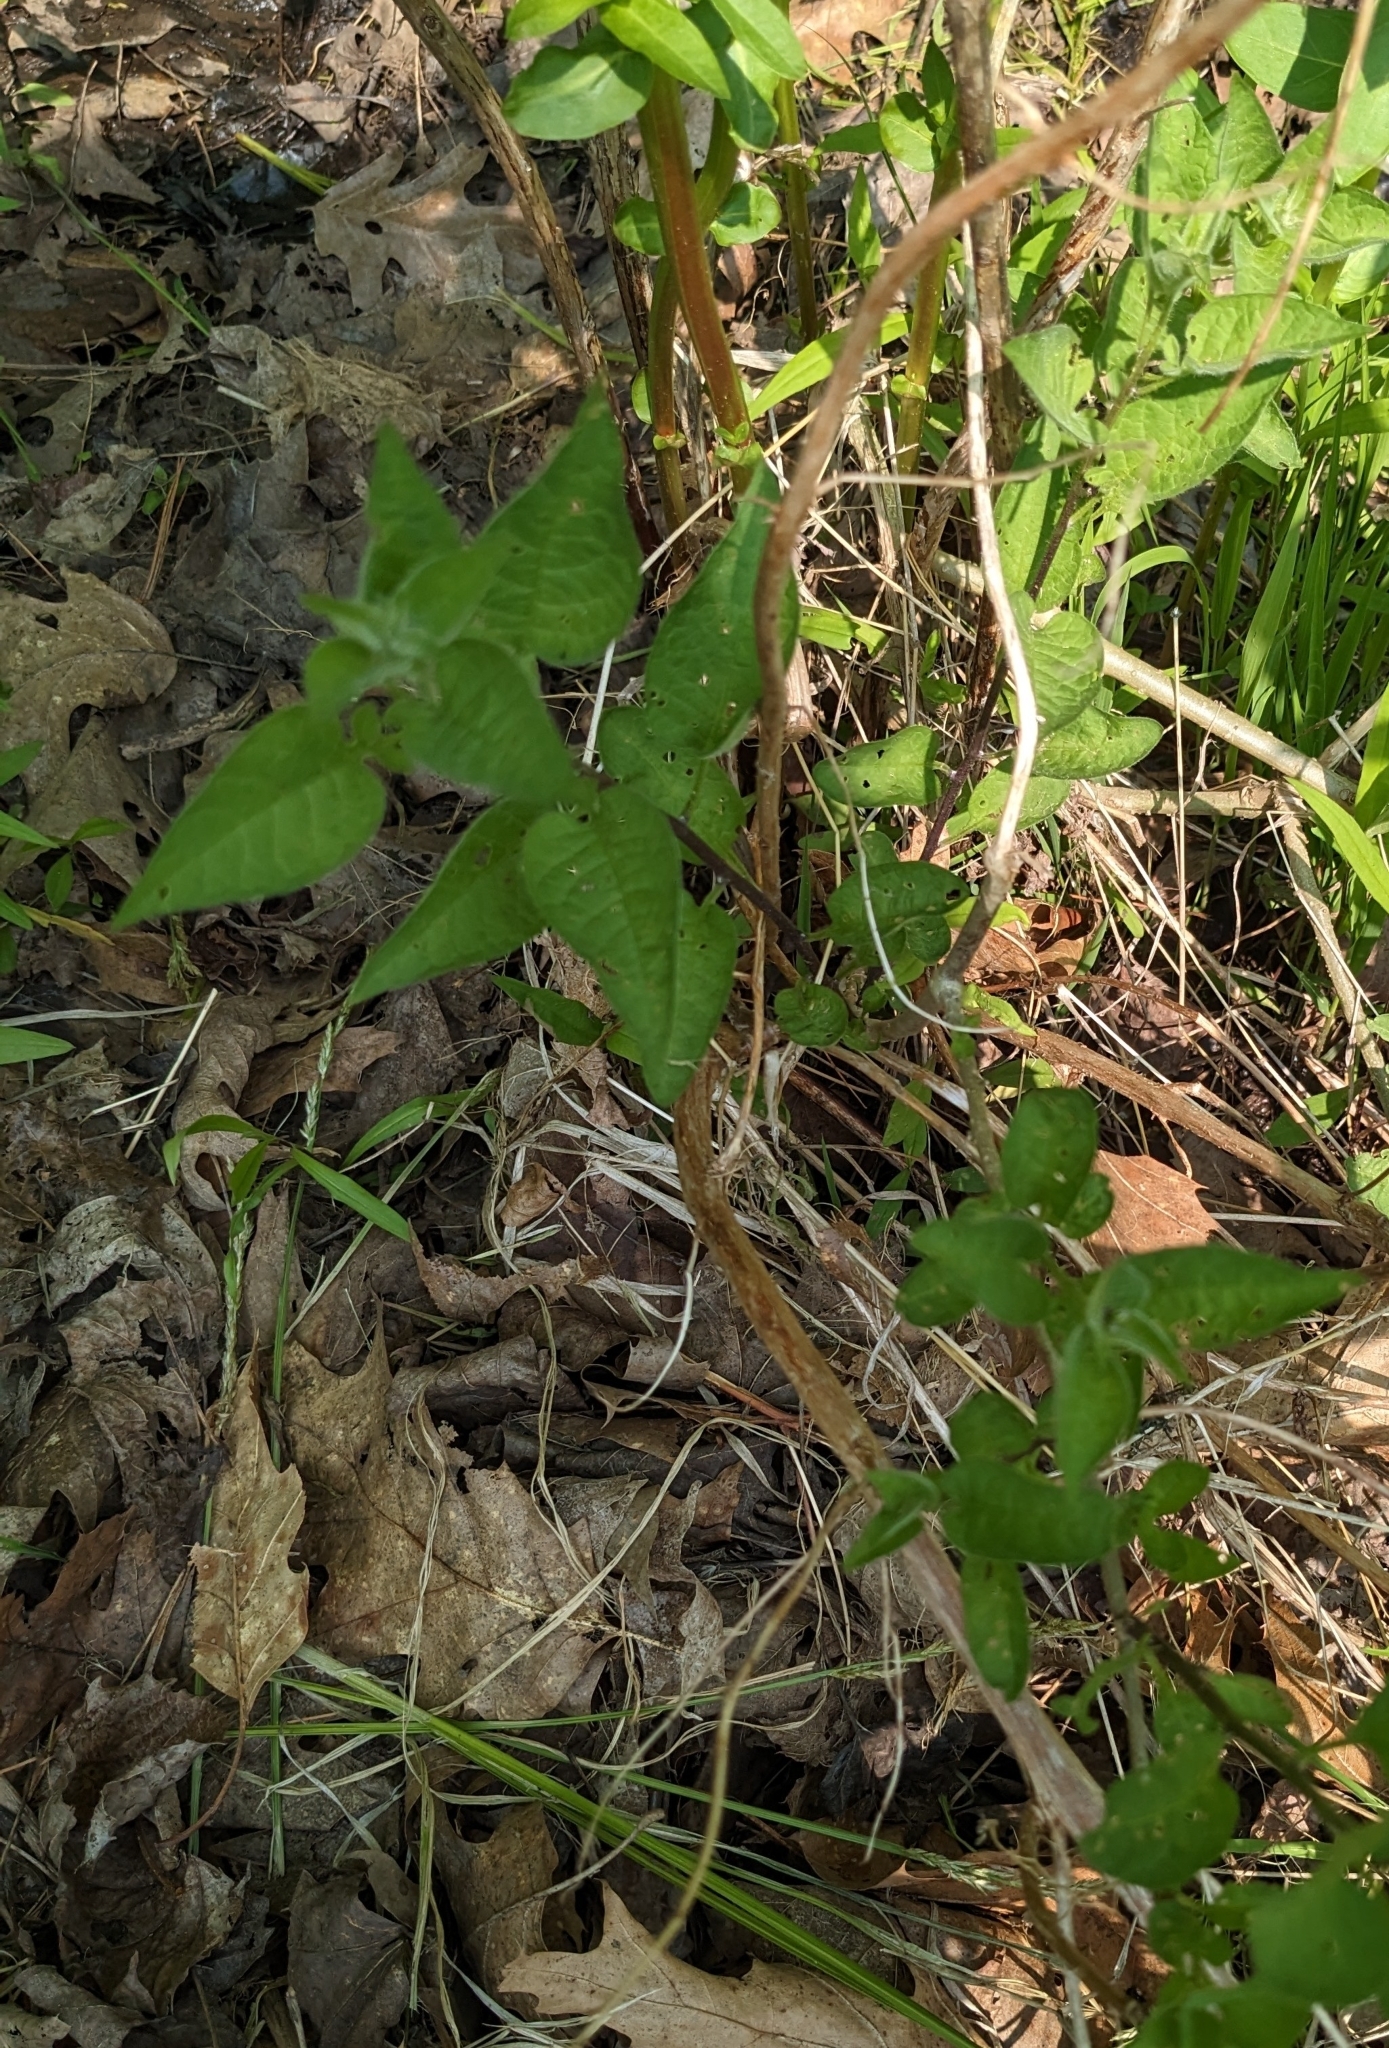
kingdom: Plantae
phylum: Tracheophyta
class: Magnoliopsida
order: Solanales
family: Solanaceae
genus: Solanum
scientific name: Solanum dulcamara
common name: Climbing nightshade
